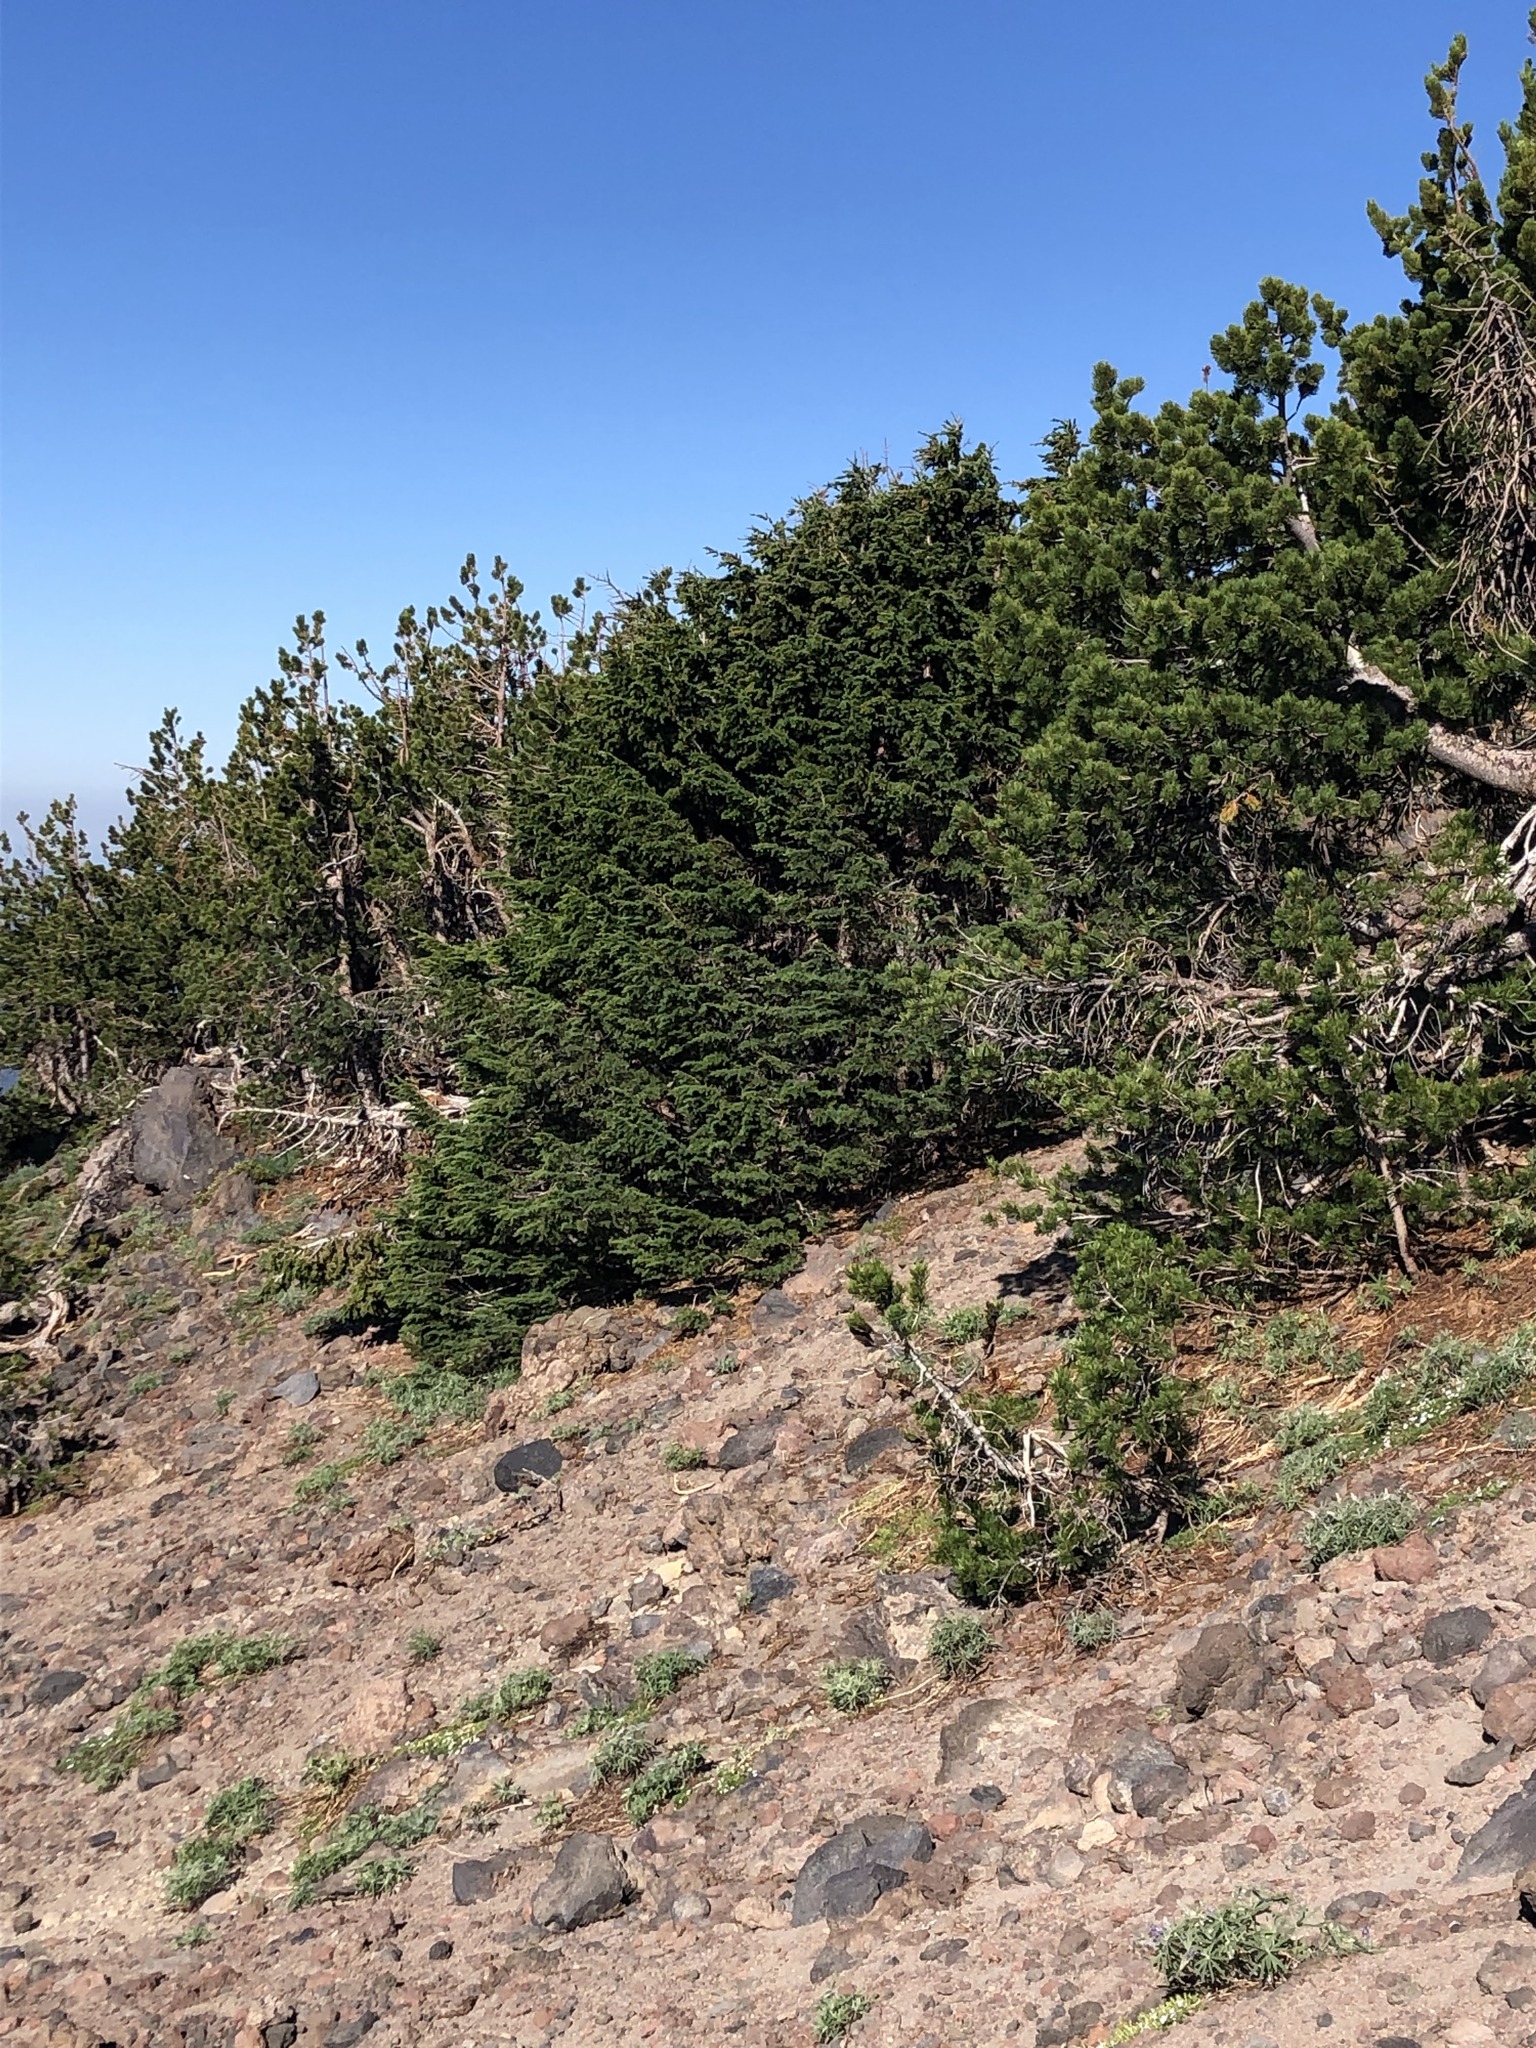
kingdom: Plantae
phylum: Tracheophyta
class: Pinopsida
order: Pinales
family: Pinaceae
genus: Tsuga
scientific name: Tsuga mertensiana
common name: Mountain hemlock
